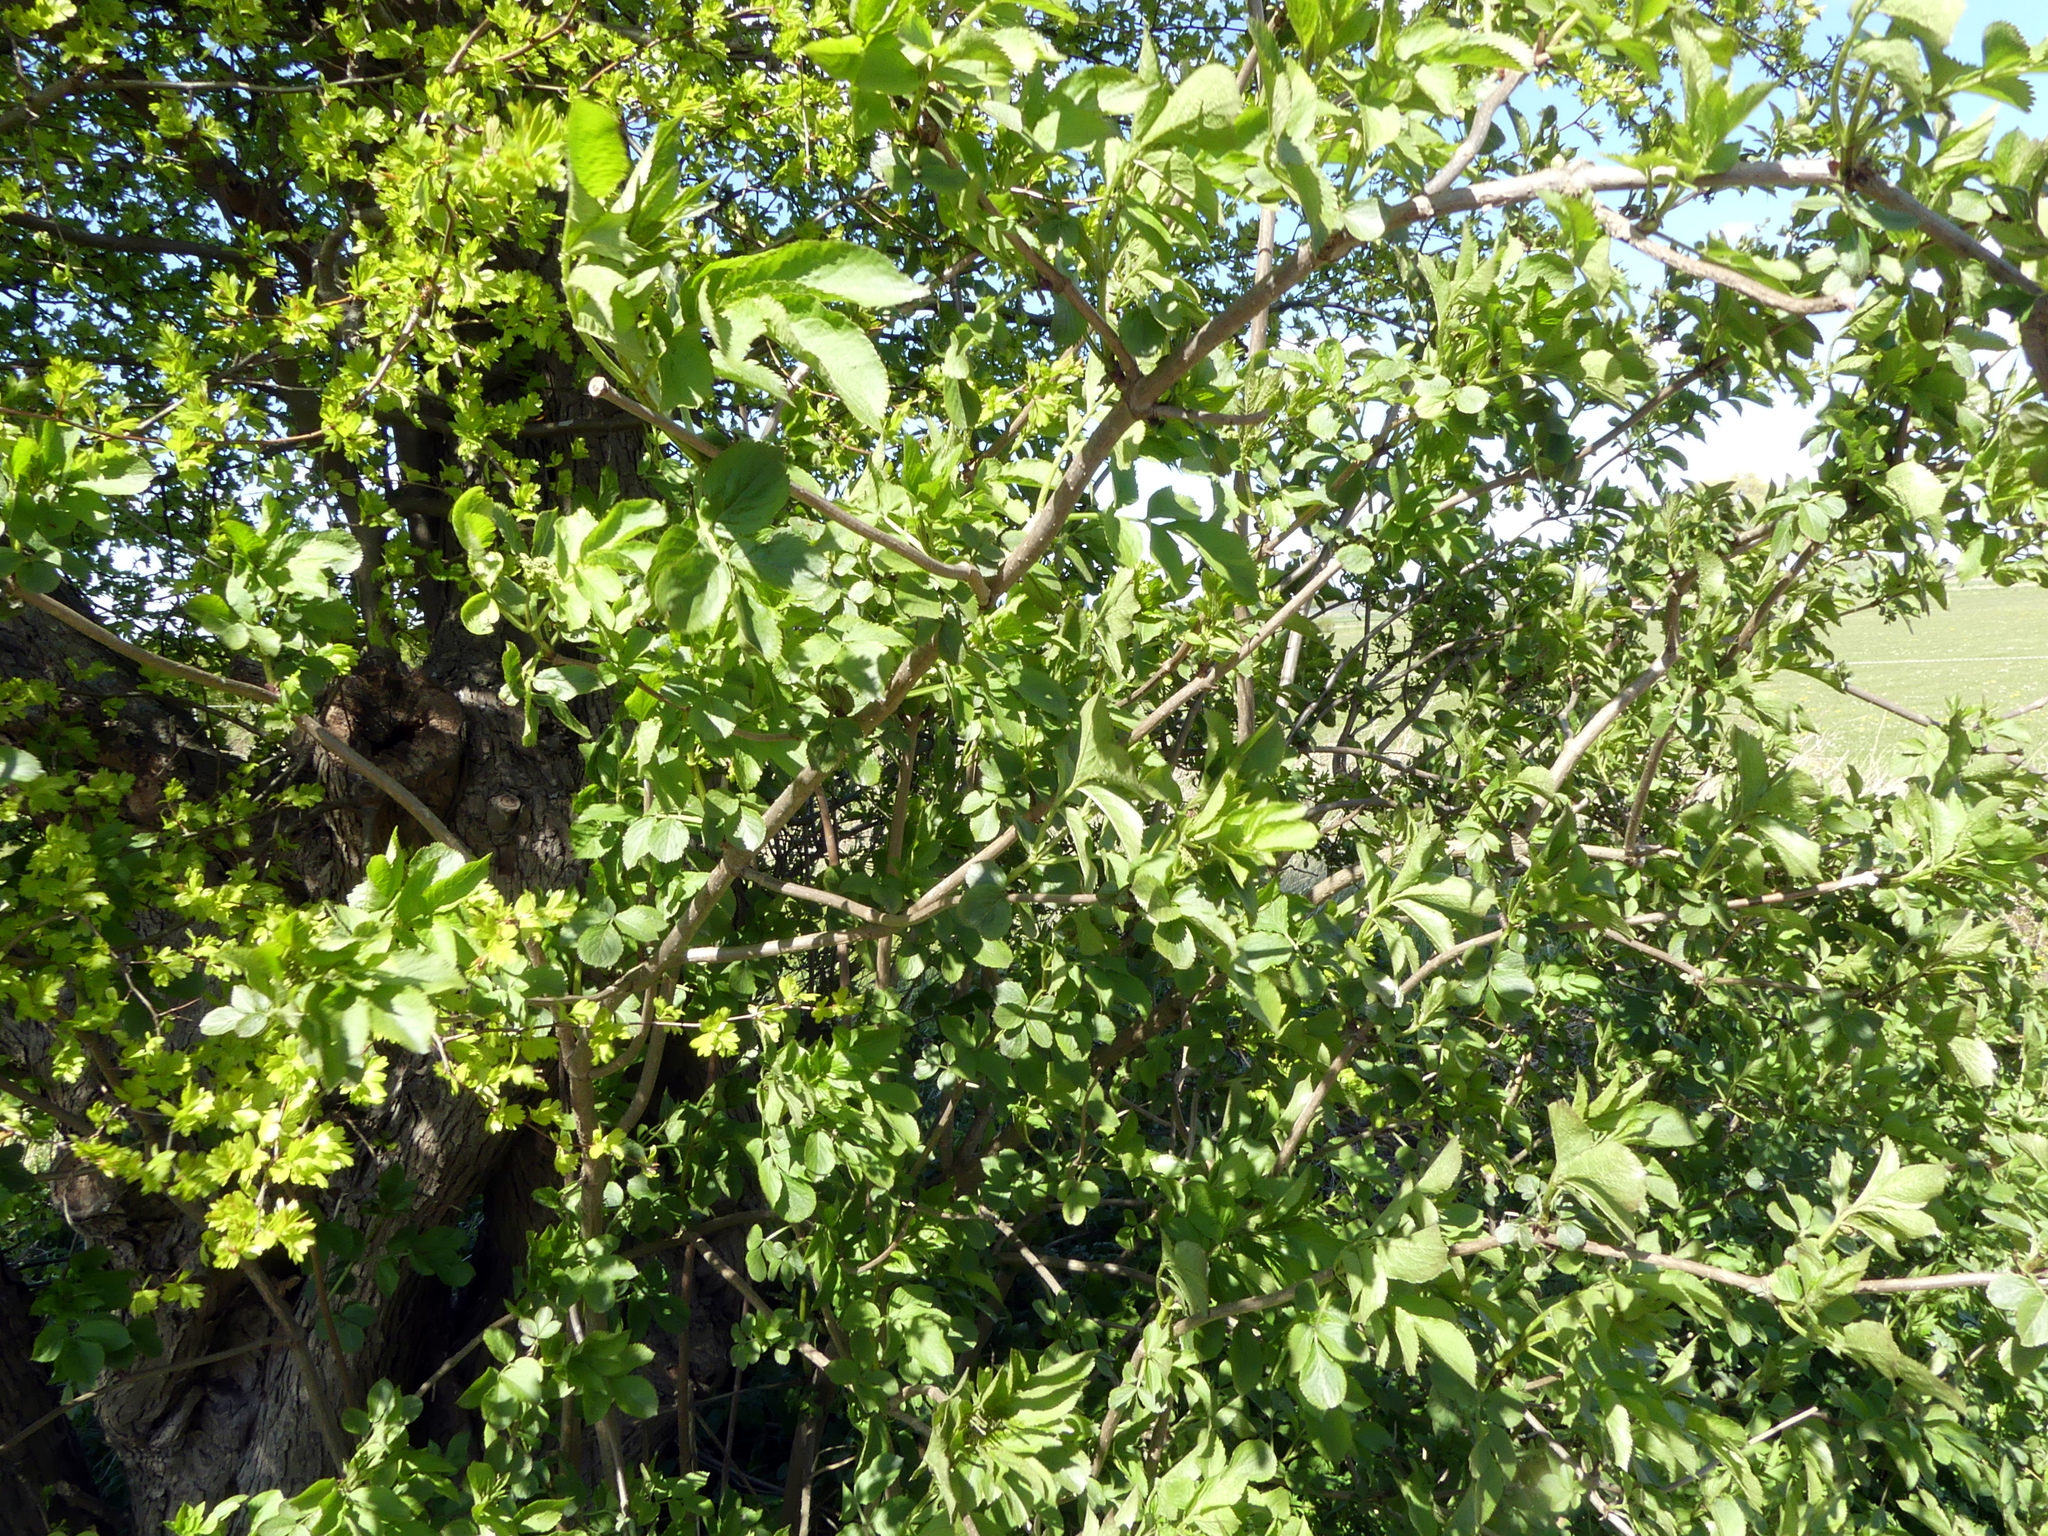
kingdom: Plantae
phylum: Tracheophyta
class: Magnoliopsida
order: Dipsacales
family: Viburnaceae
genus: Sambucus
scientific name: Sambucus nigra
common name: Elder
